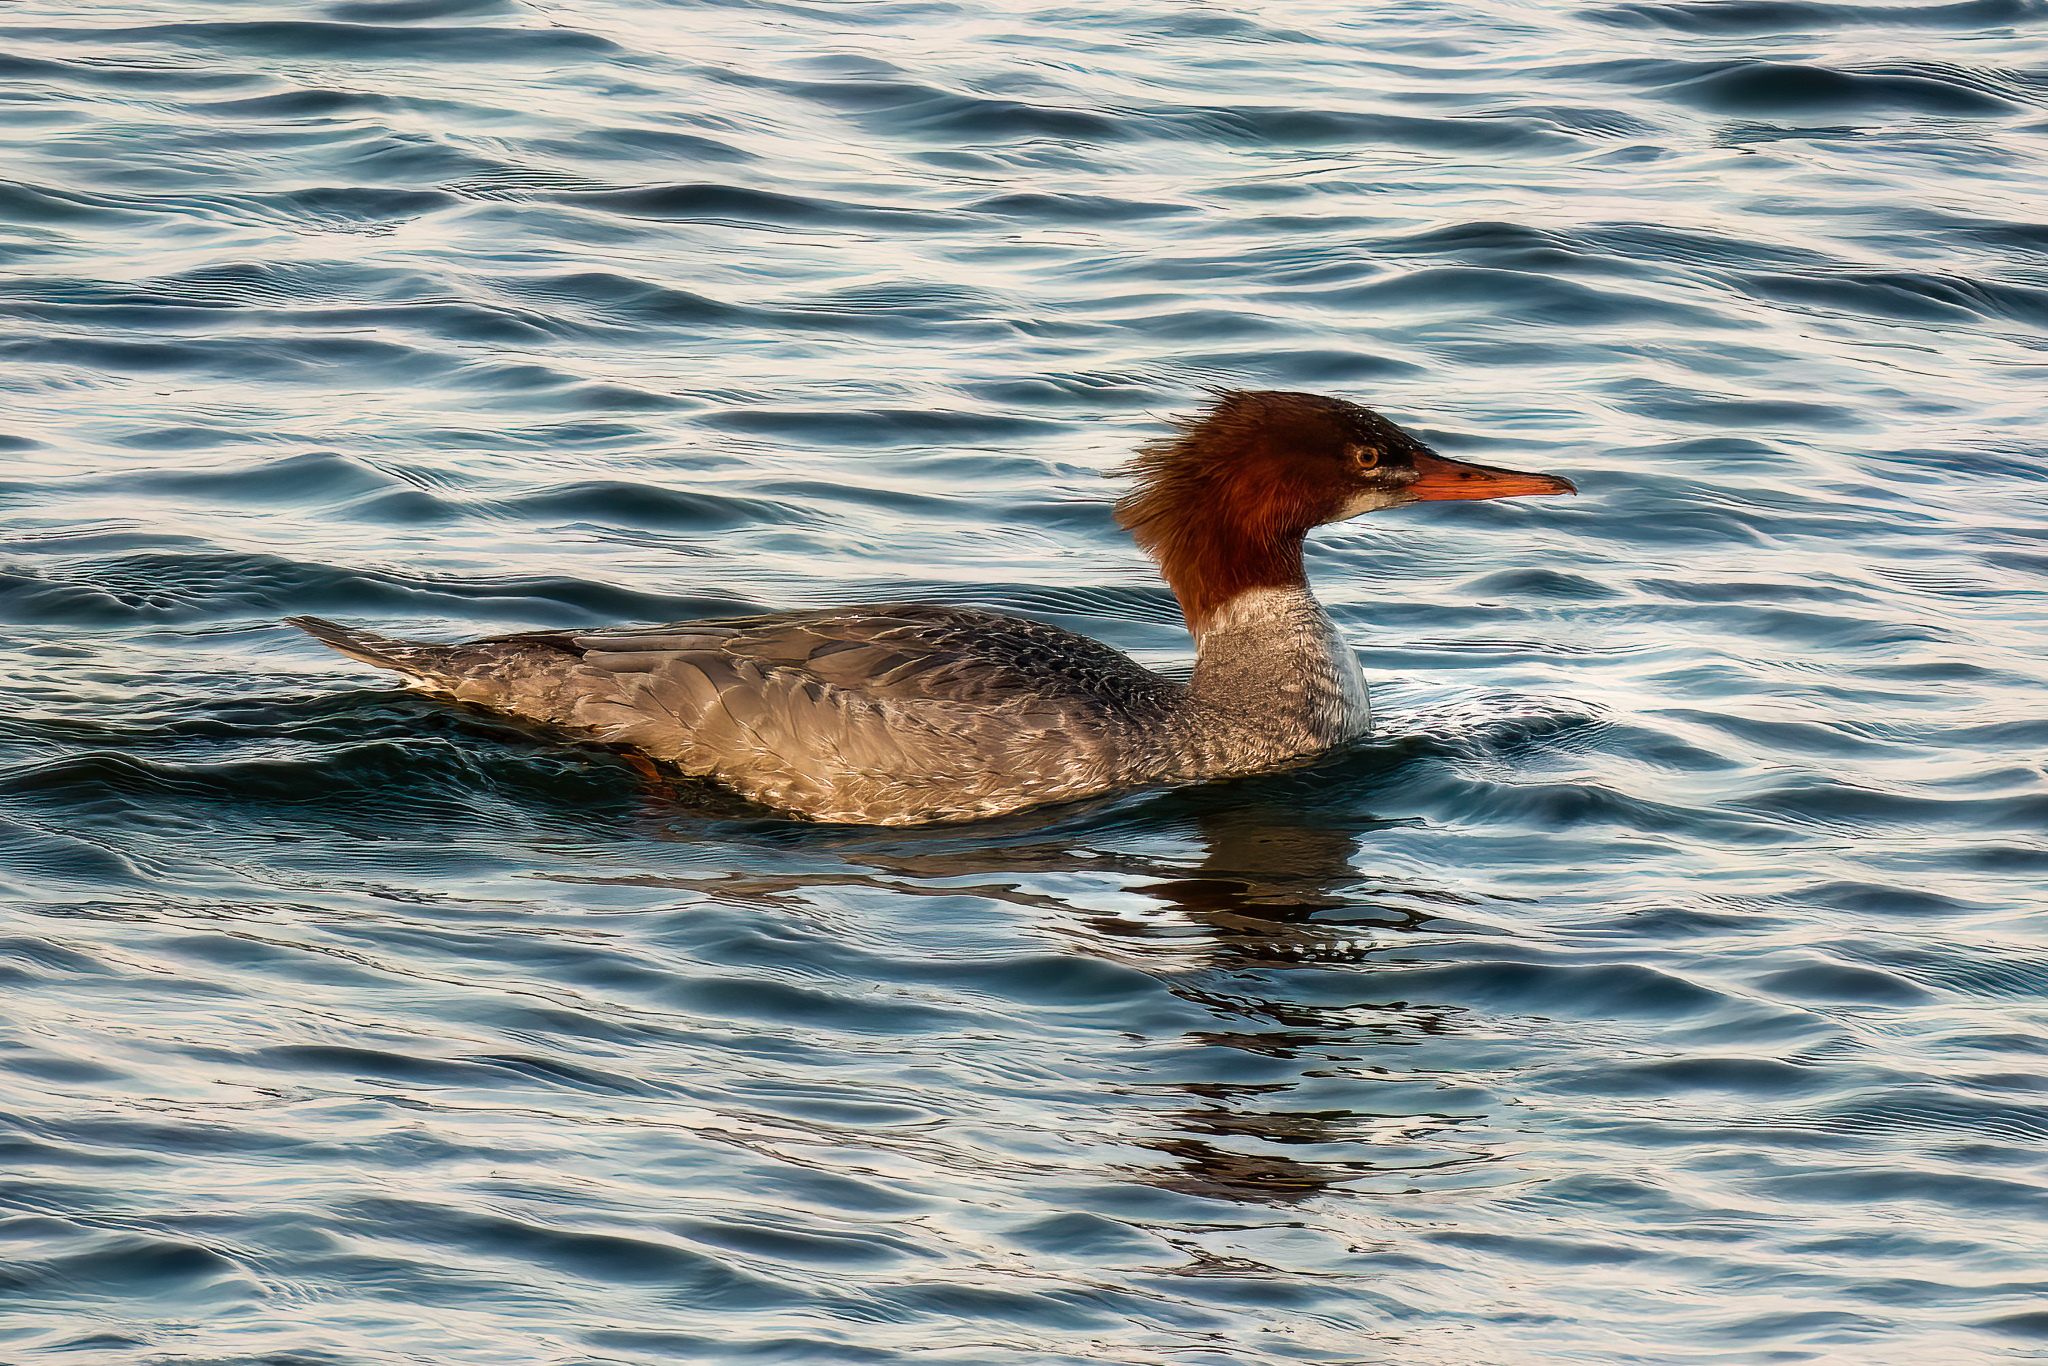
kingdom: Animalia
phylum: Chordata
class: Aves
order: Anseriformes
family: Anatidae
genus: Mergus
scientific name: Mergus merganser
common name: Common merganser
